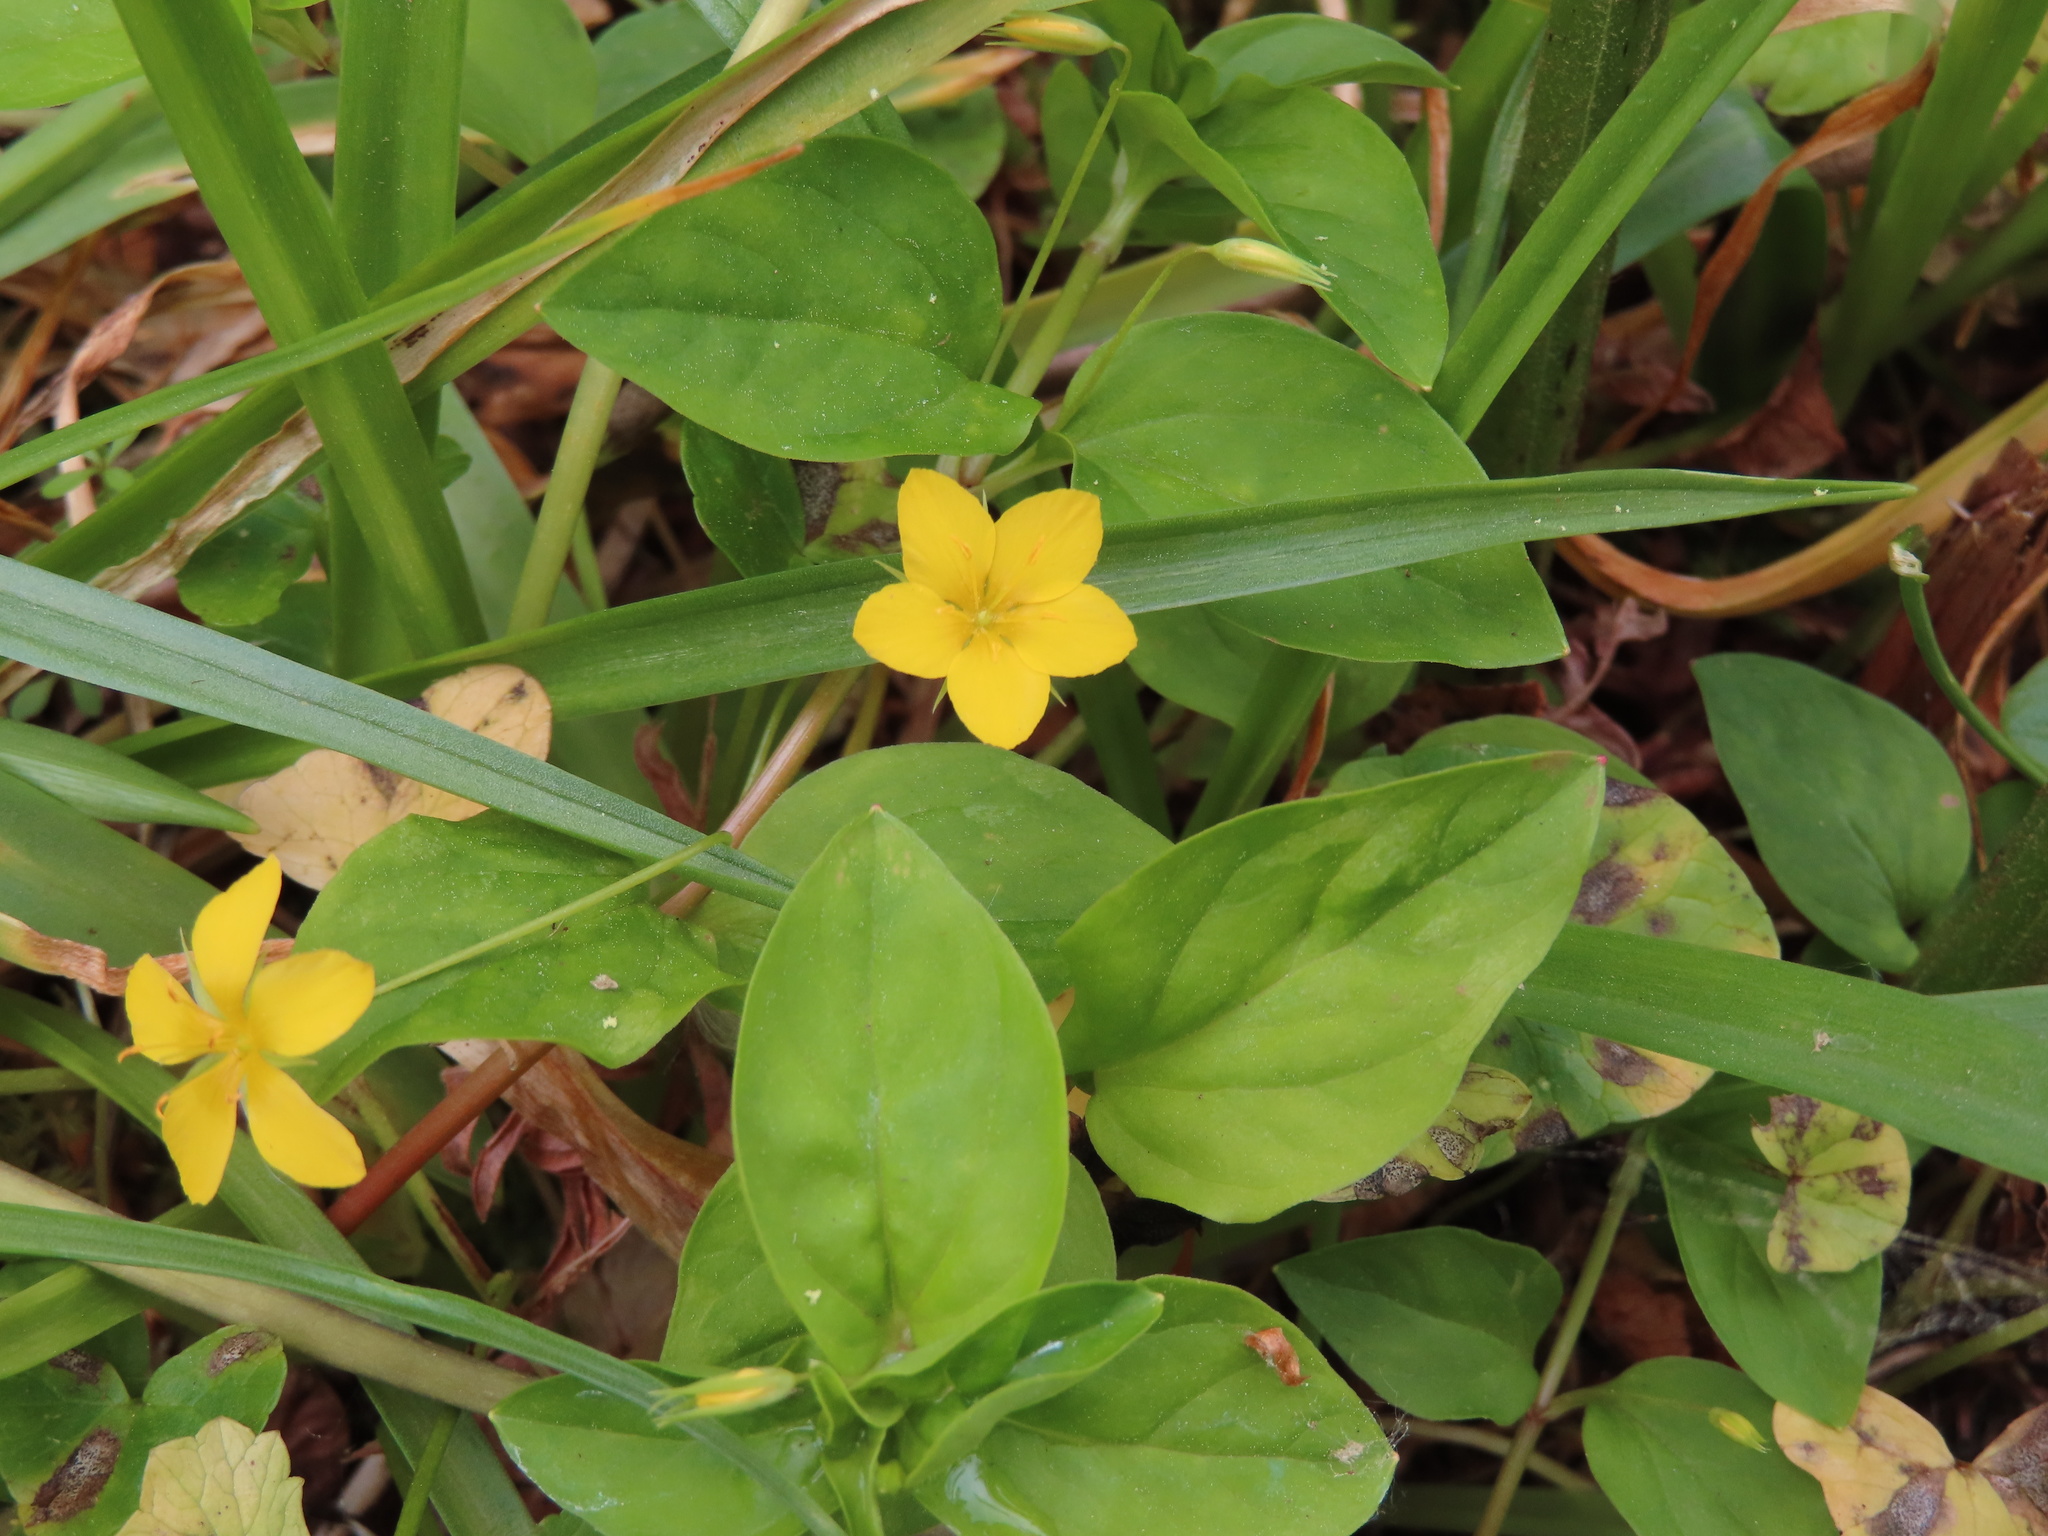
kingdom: Plantae
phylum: Tracheophyta
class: Magnoliopsida
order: Ericales
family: Primulaceae
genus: Lysimachia
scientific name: Lysimachia nemorum
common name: Yellow pimpernel
